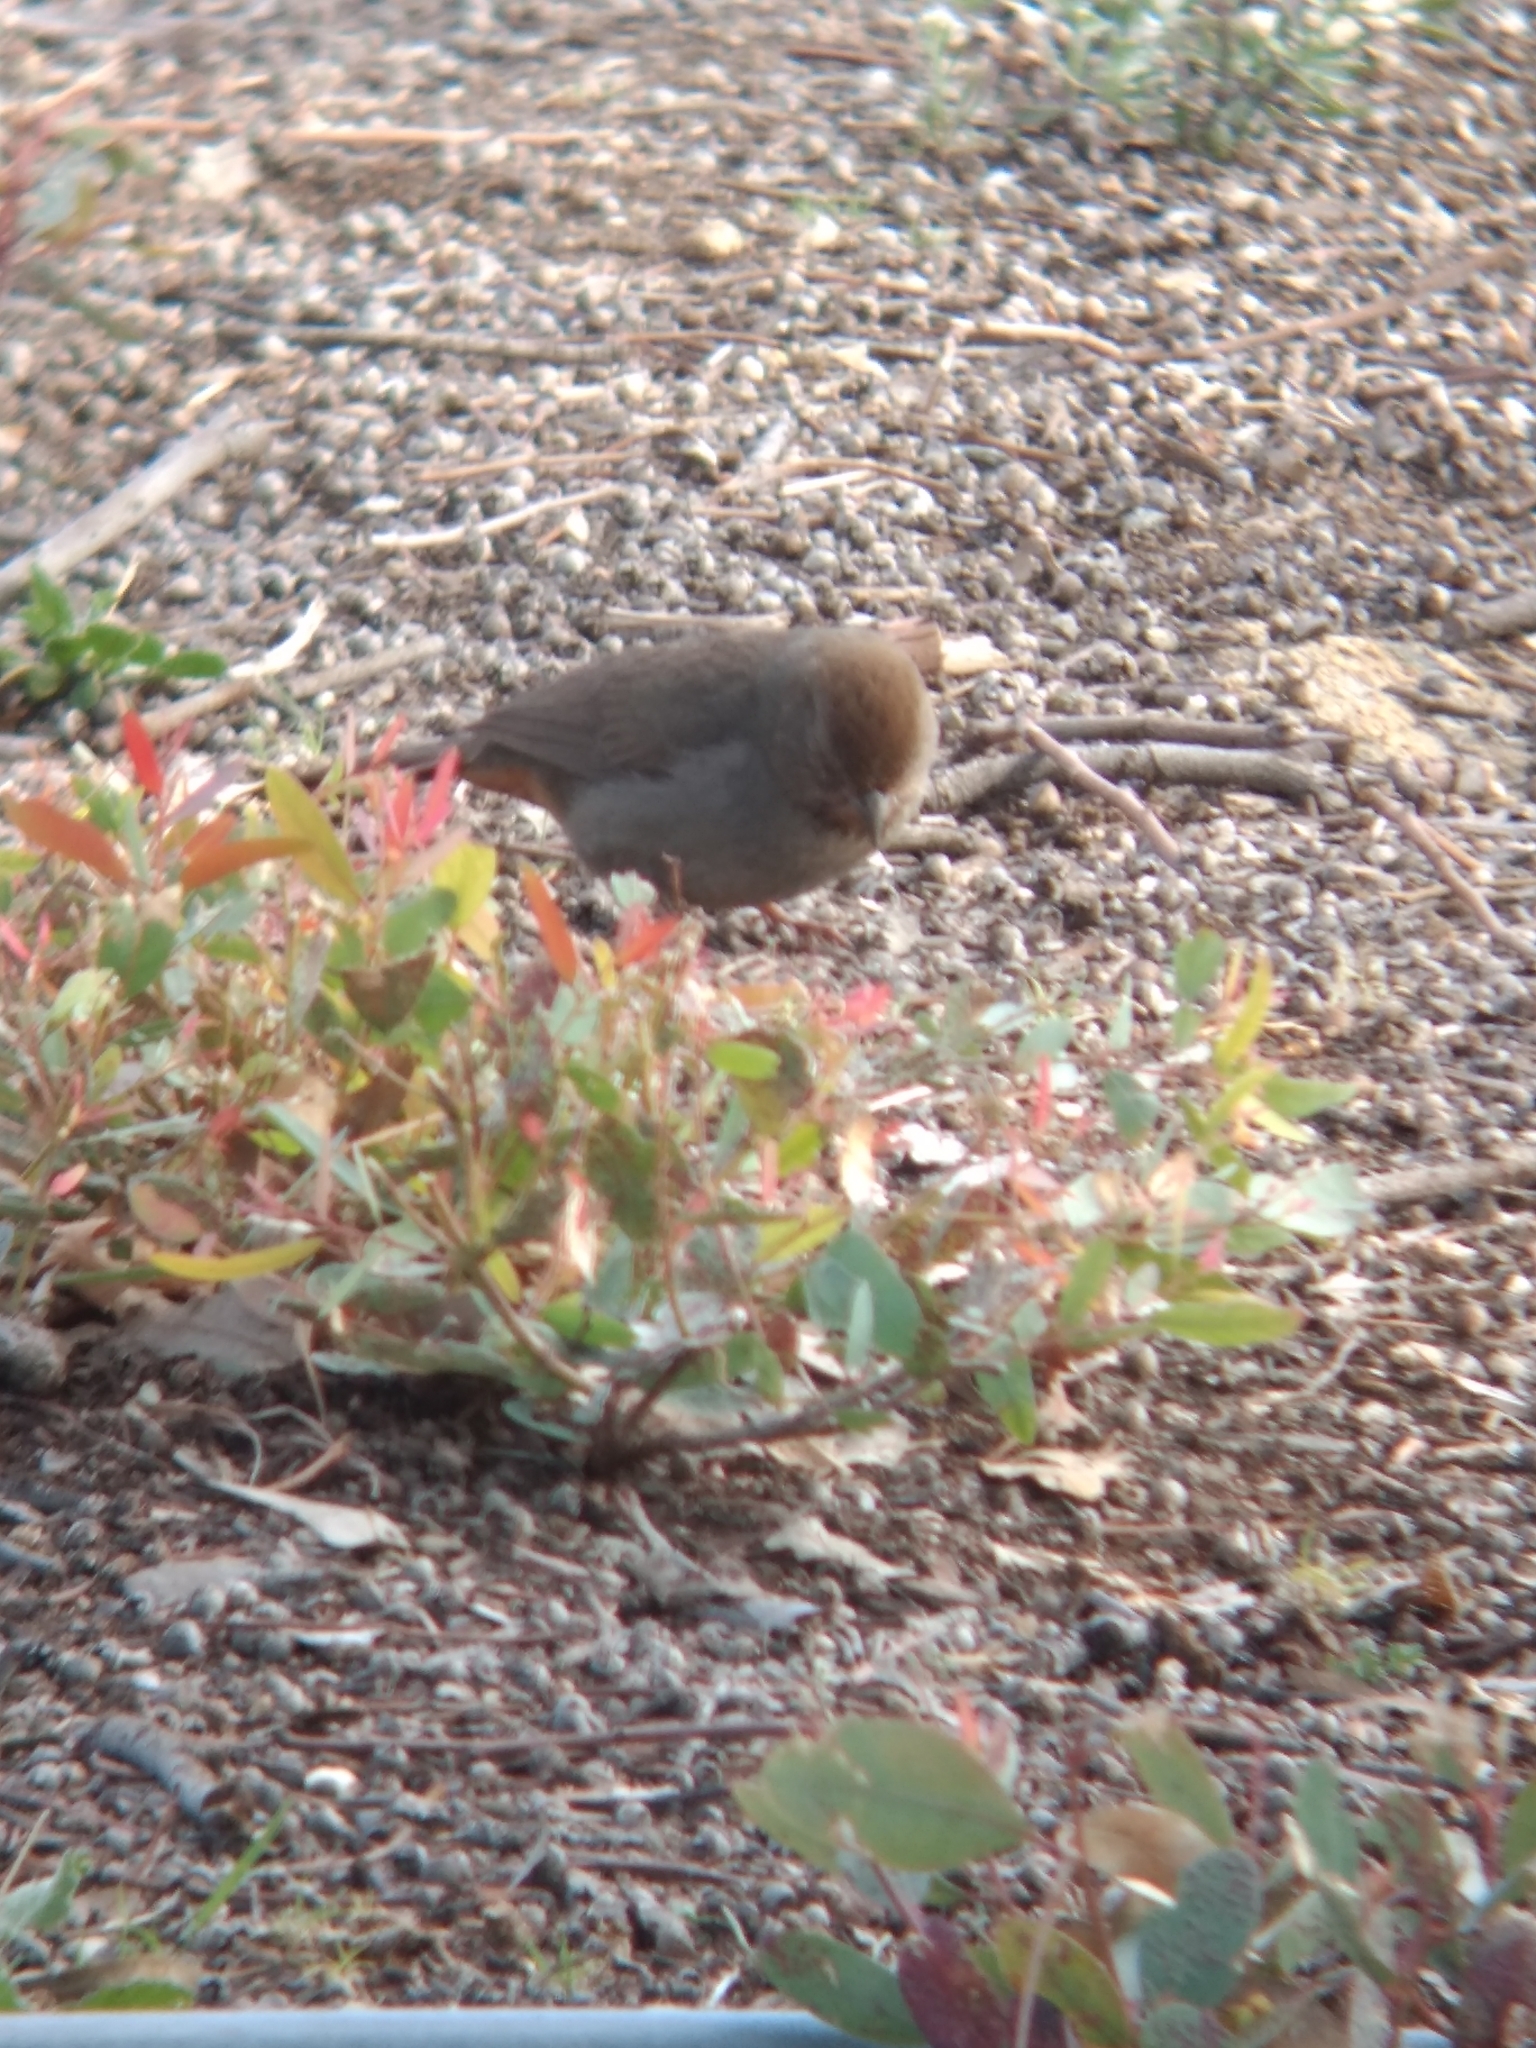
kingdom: Animalia
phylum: Chordata
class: Aves
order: Passeriformes
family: Passerellidae
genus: Melozone
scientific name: Melozone crissalis
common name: California towhee
